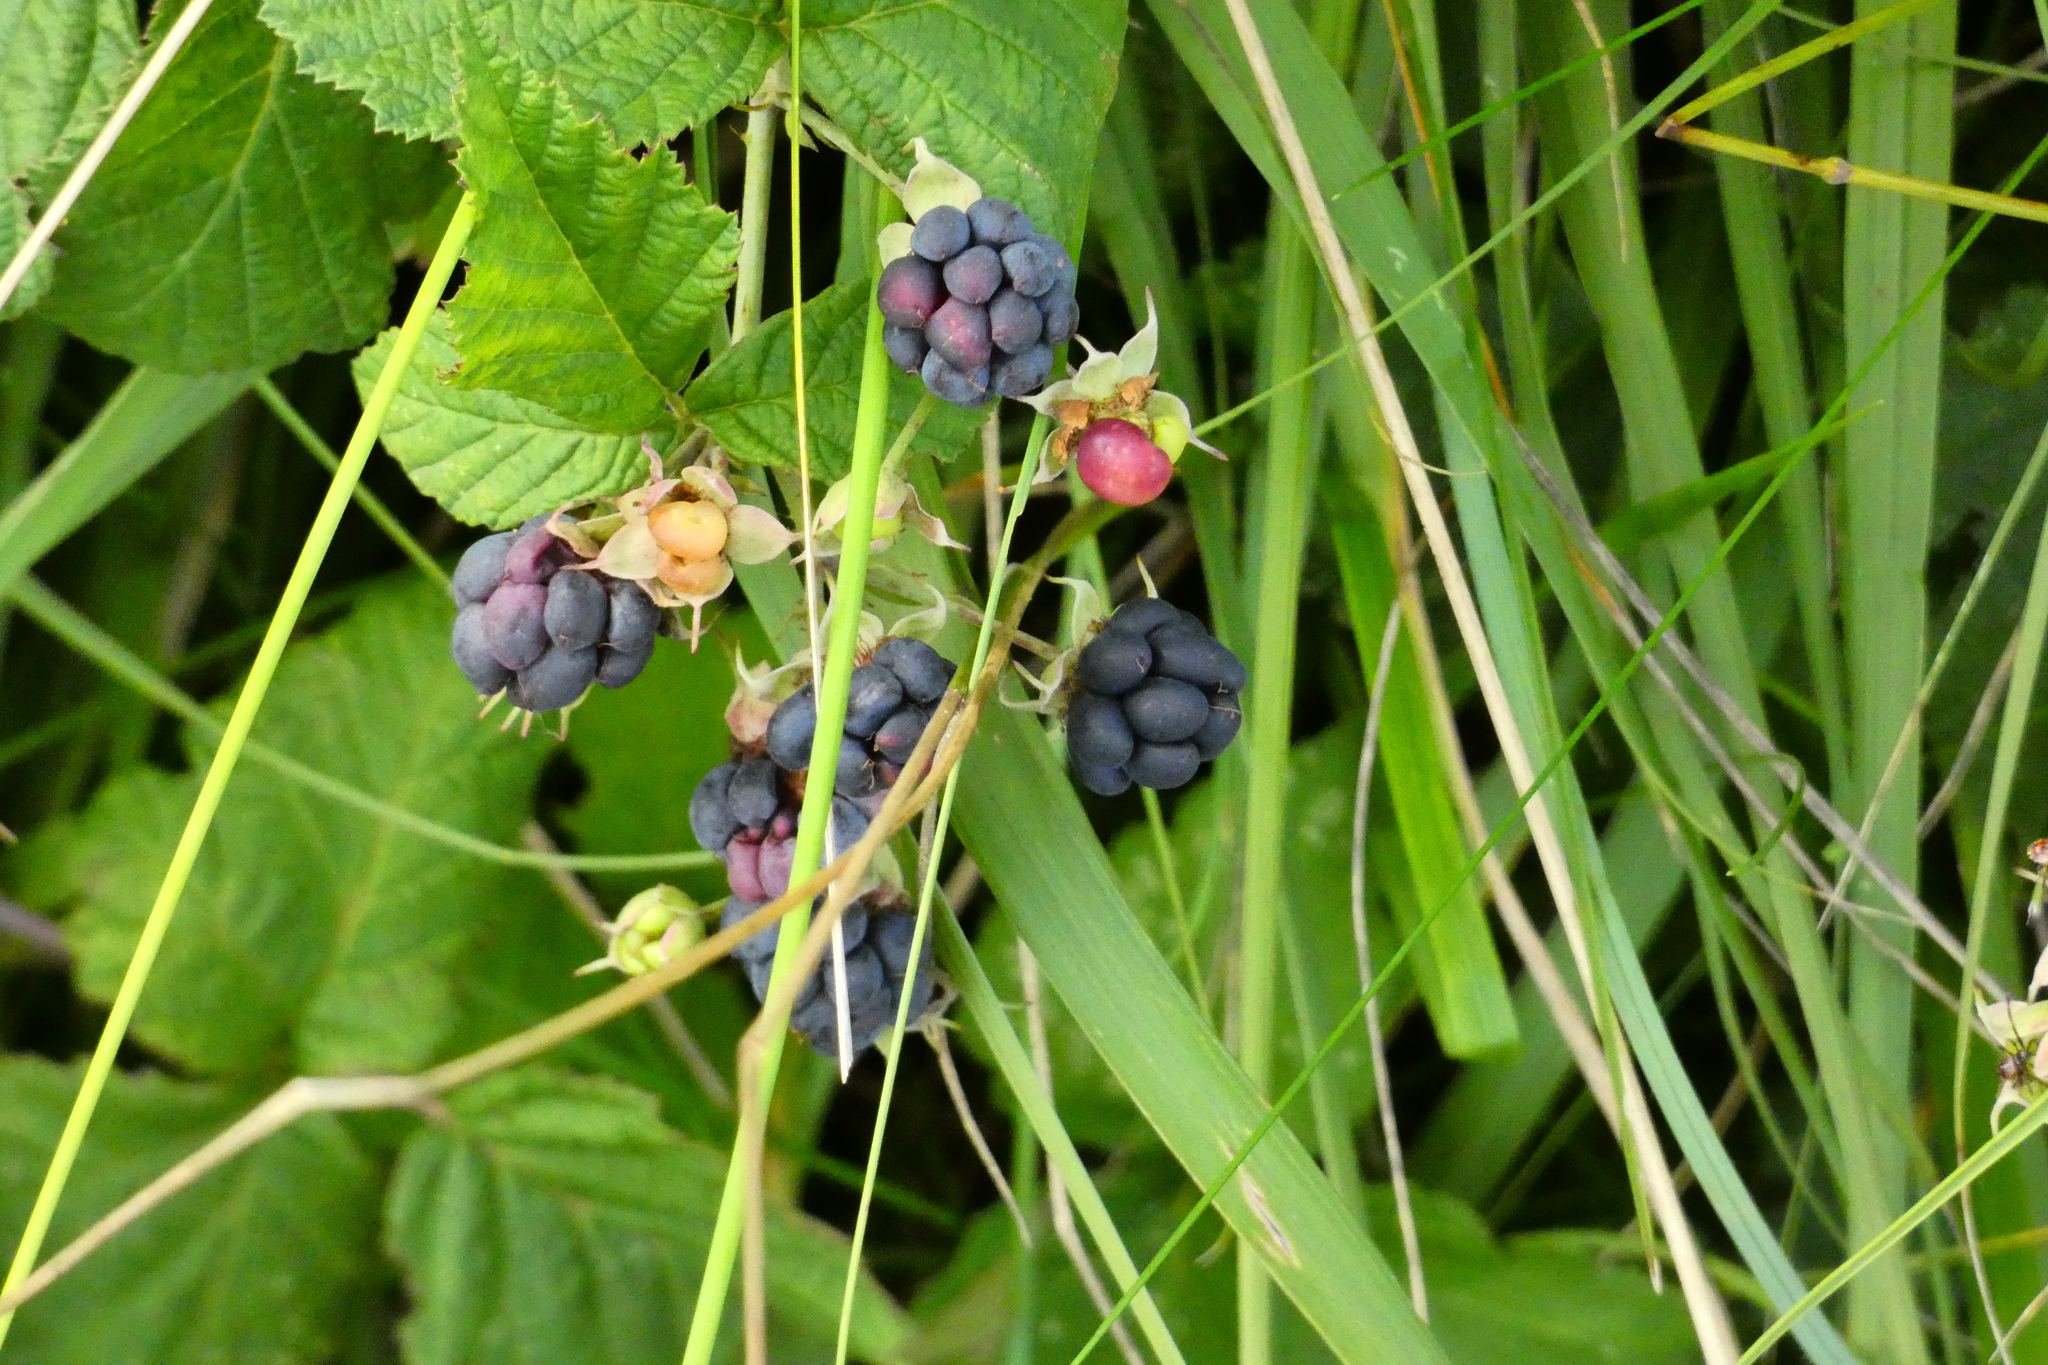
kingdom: Plantae
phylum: Tracheophyta
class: Magnoliopsida
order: Rosales
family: Rosaceae
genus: Rubus
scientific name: Rubus caesius
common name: Dewberry
